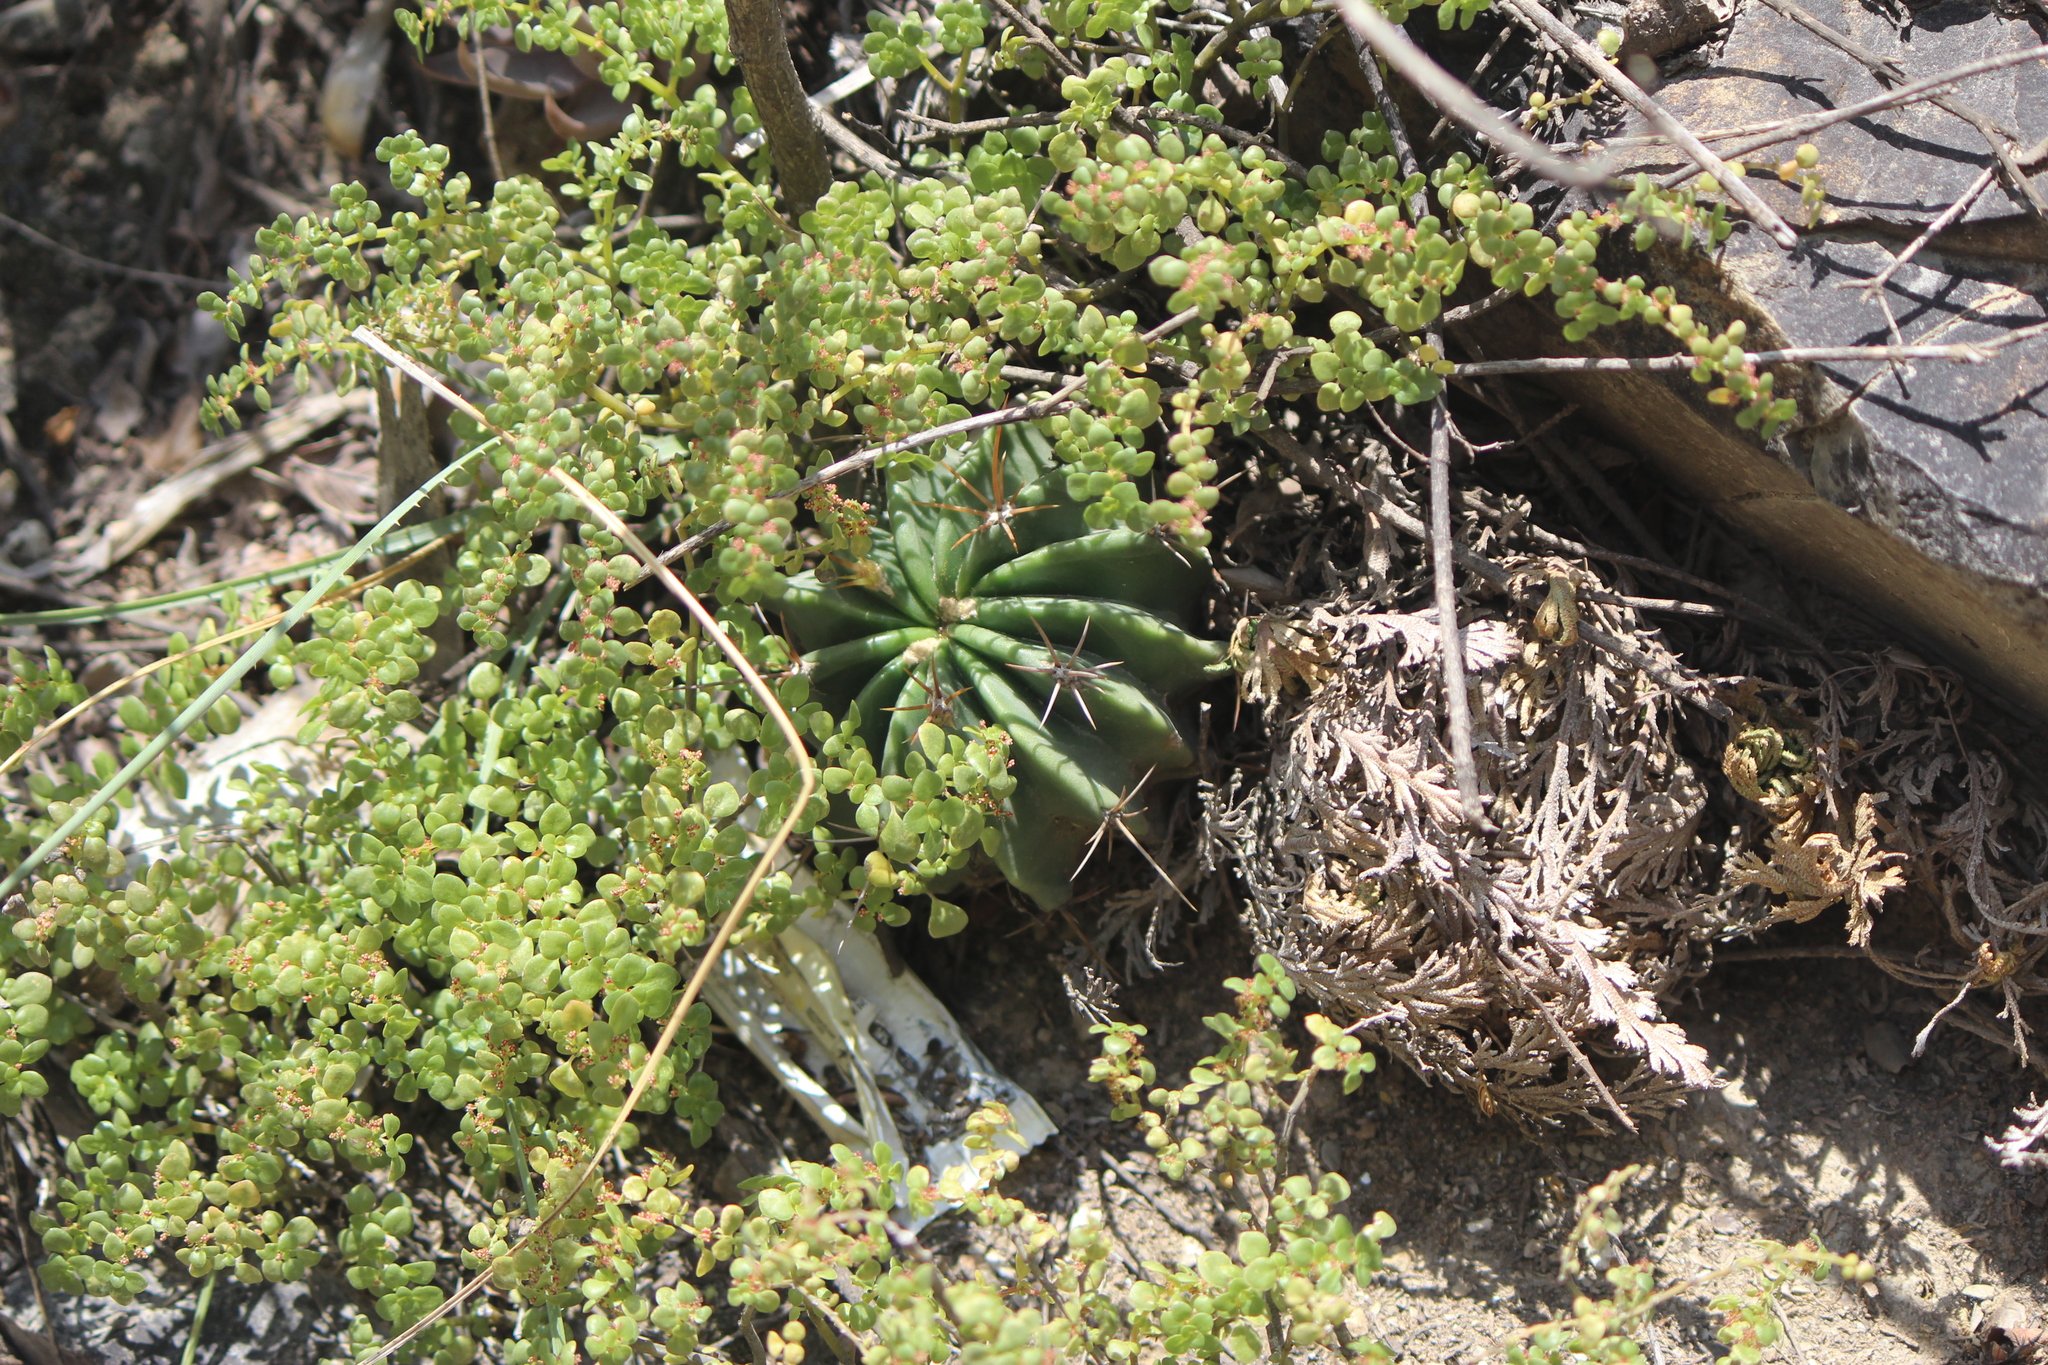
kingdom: Plantae
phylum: Tracheophyta
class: Lycopodiopsida
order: Selaginellales
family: Selaginellaceae
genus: Selaginella
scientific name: Selaginella lepidophylla
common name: Rose-of-jericho
